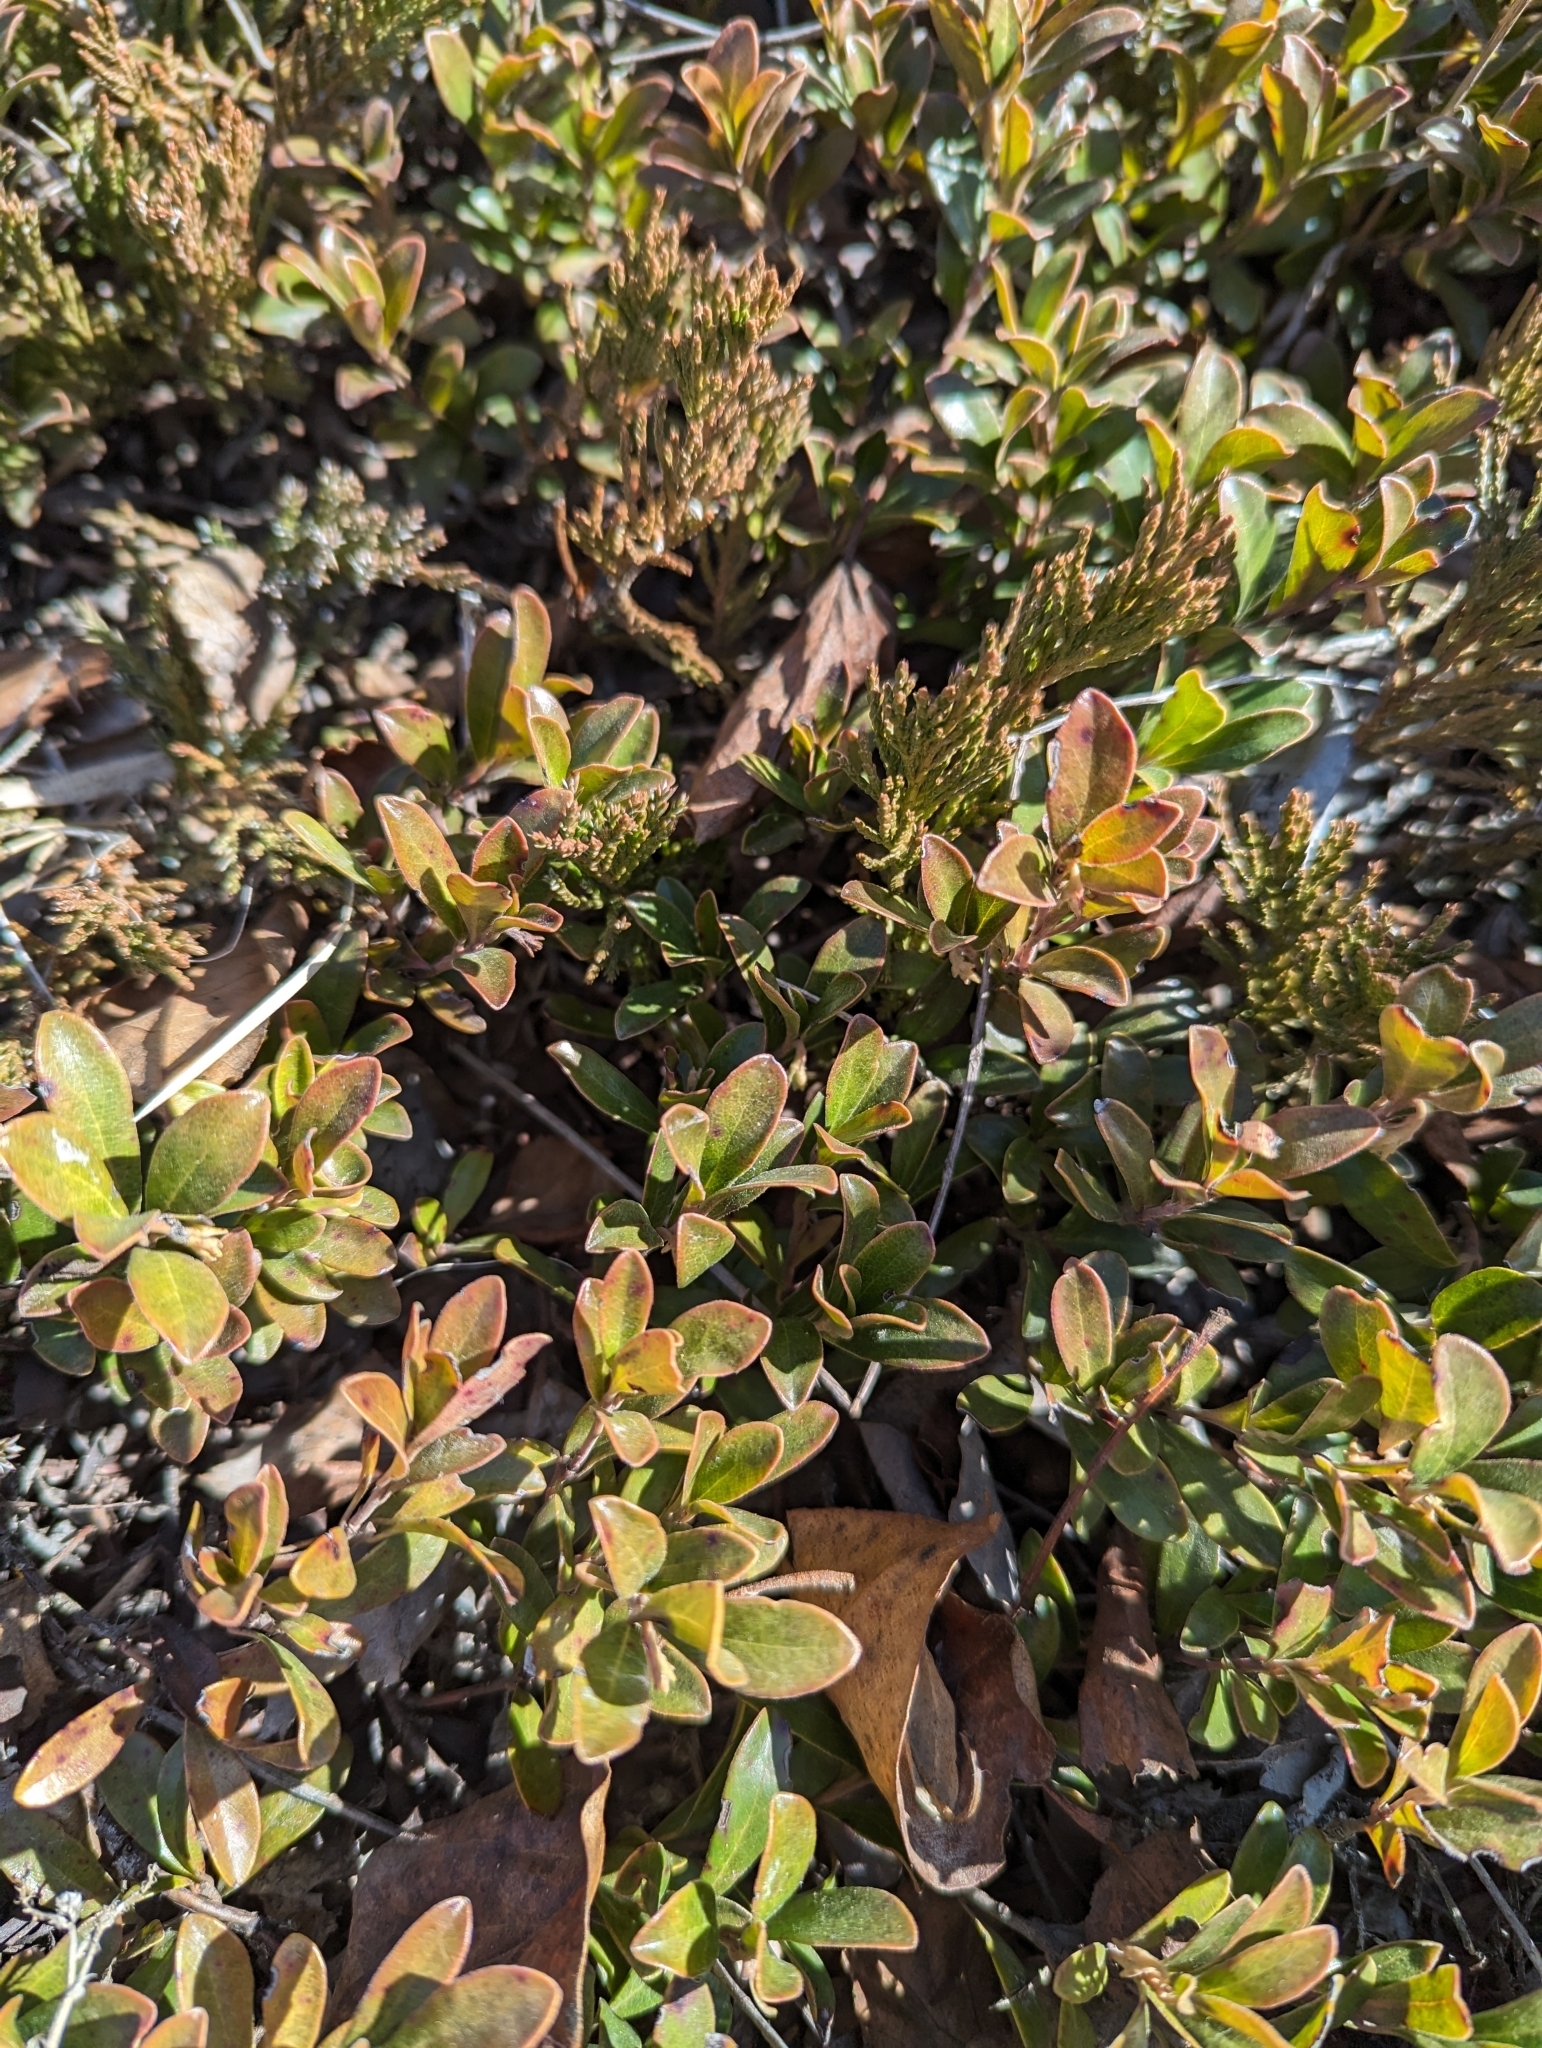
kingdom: Plantae
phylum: Tracheophyta
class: Magnoliopsida
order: Ericales
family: Ericaceae
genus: Arctostaphylos
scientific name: Arctostaphylos uva-ursi
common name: Bearberry
